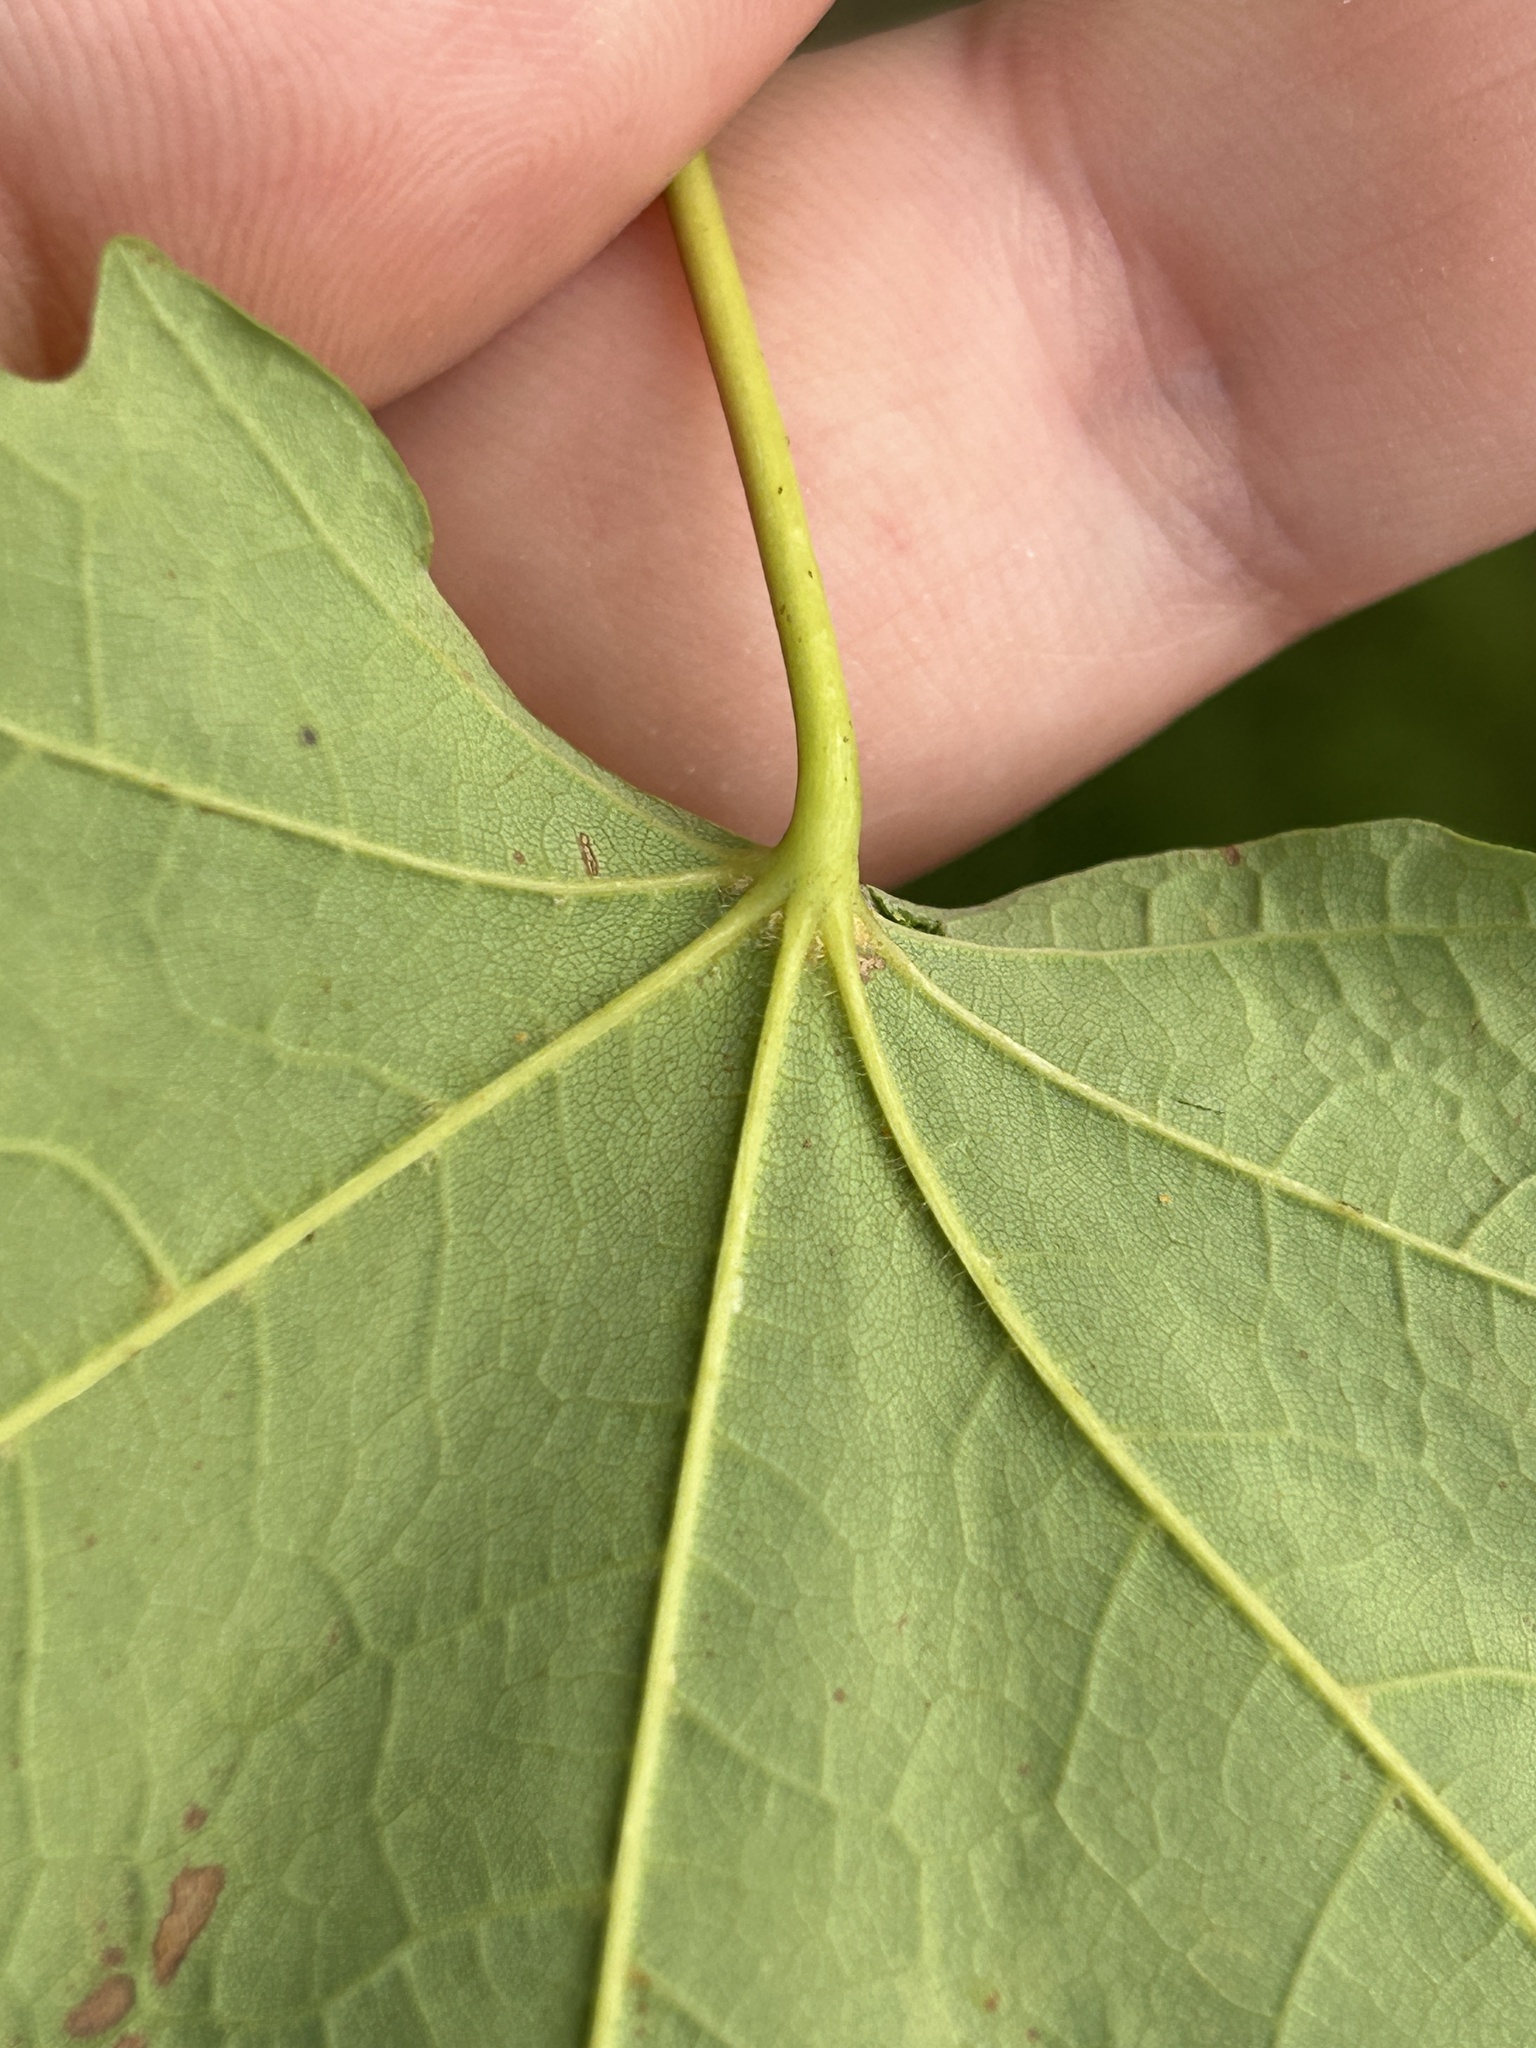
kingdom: Plantae
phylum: Tracheophyta
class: Magnoliopsida
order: Sapindales
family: Sapindaceae
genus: Acer
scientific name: Acer saccharum
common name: Sugar maple
